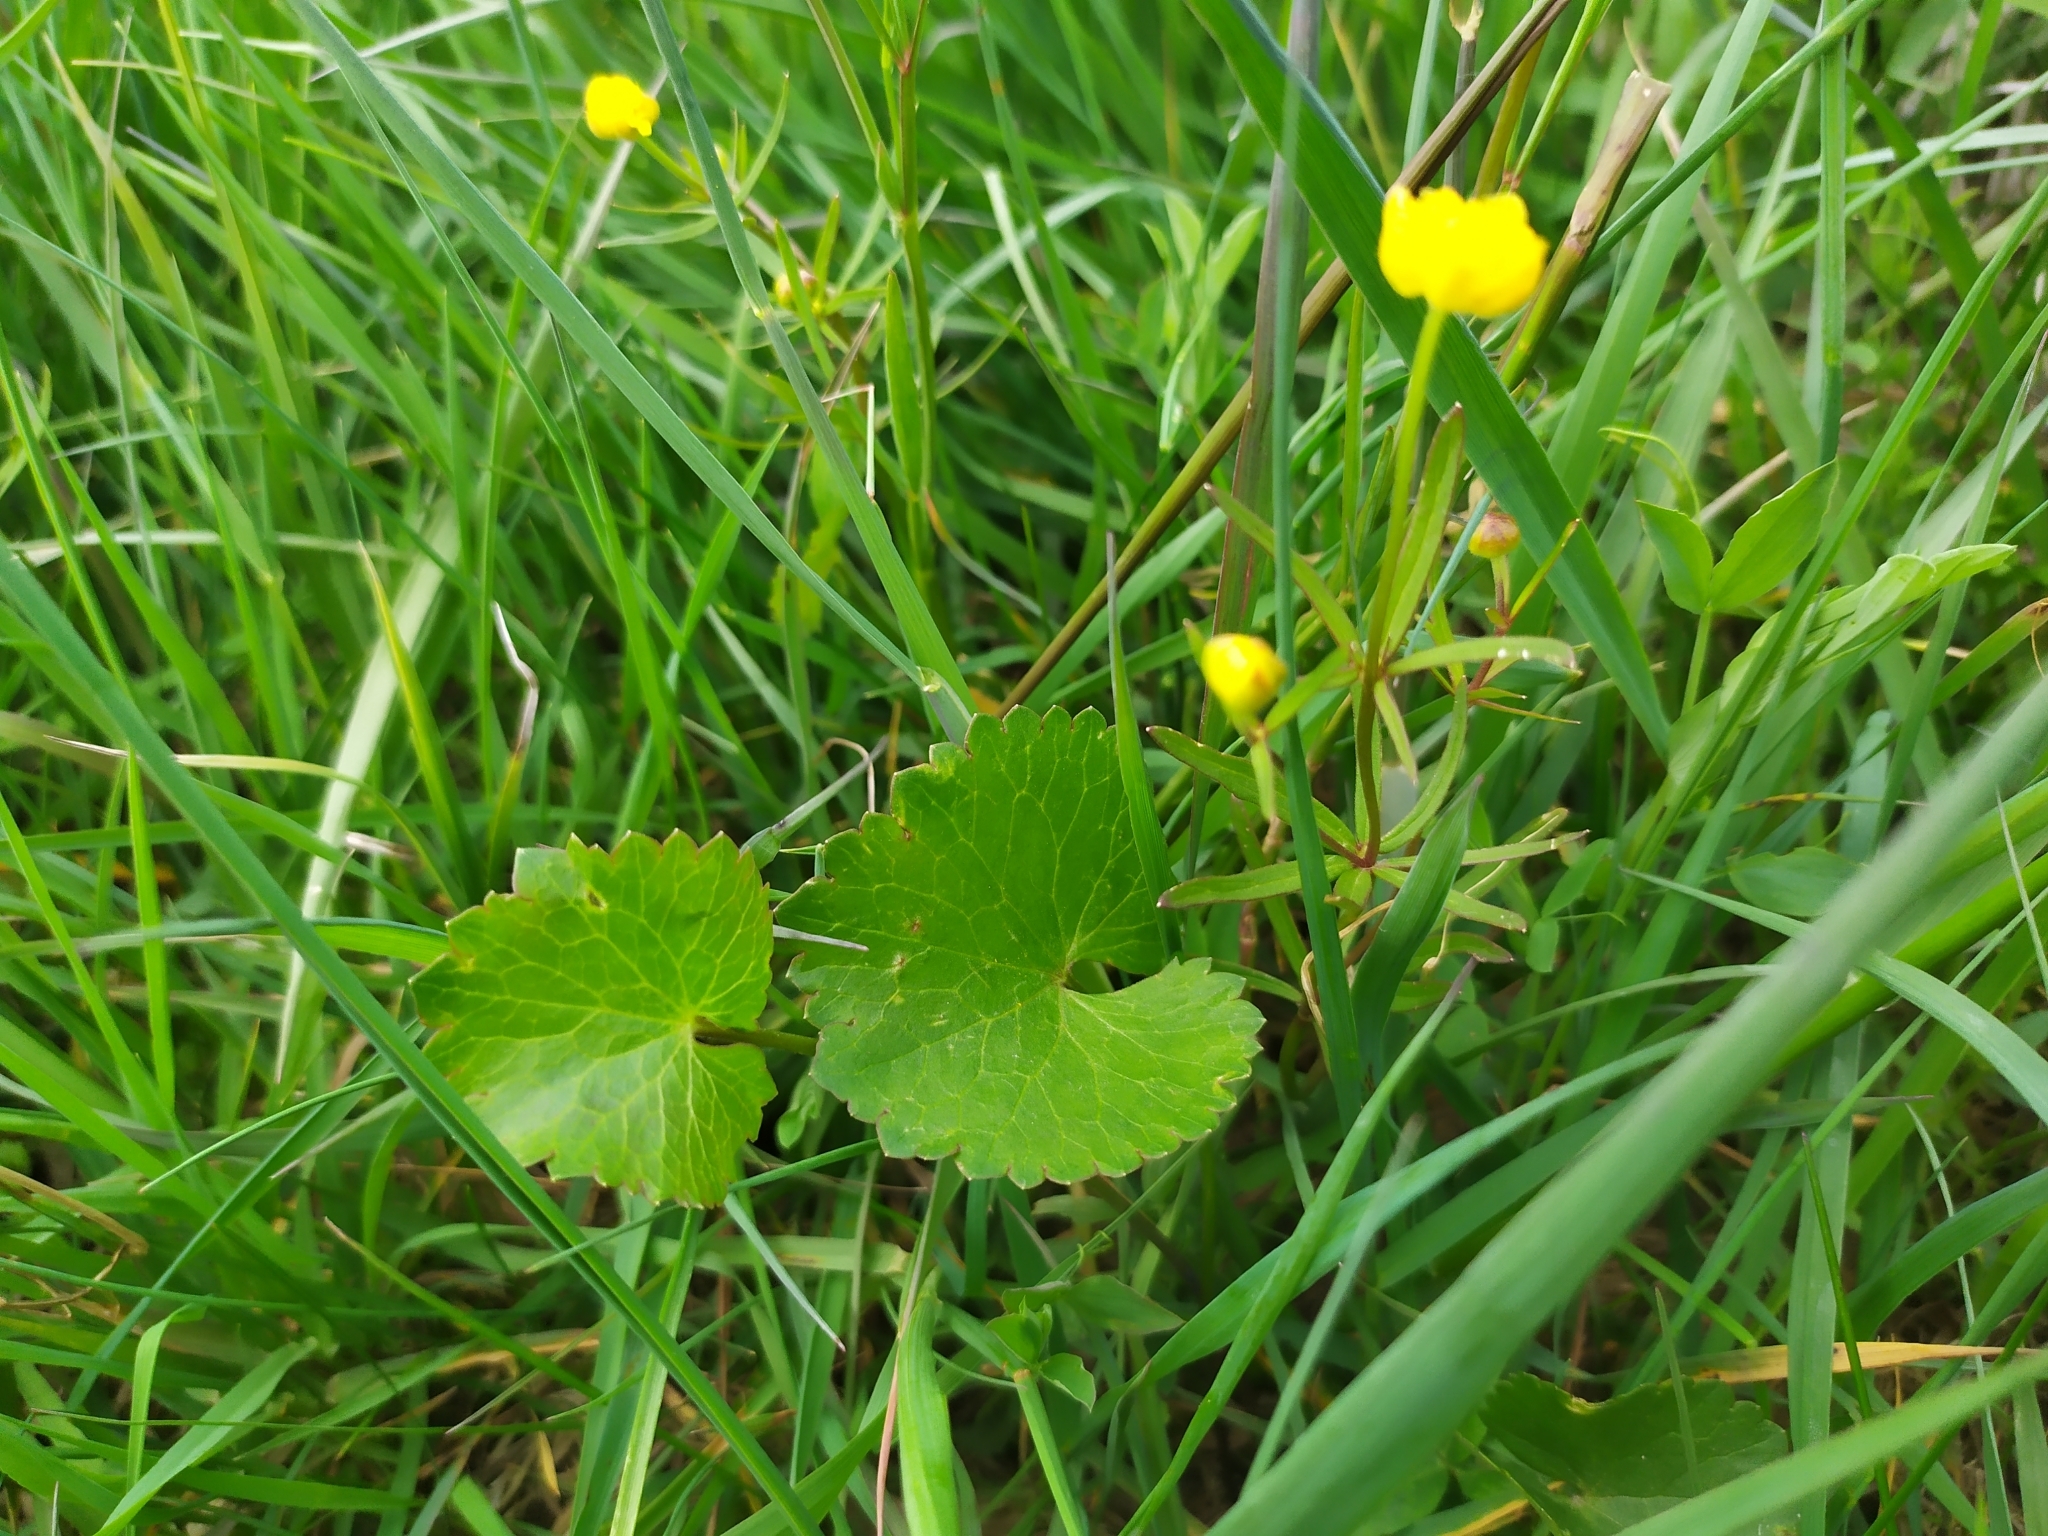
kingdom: Plantae
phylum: Tracheophyta
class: Magnoliopsida
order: Ranunculales
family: Ranunculaceae
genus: Ranunculus
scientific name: Ranunculus auricomus
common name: Goldilocks buttercup
